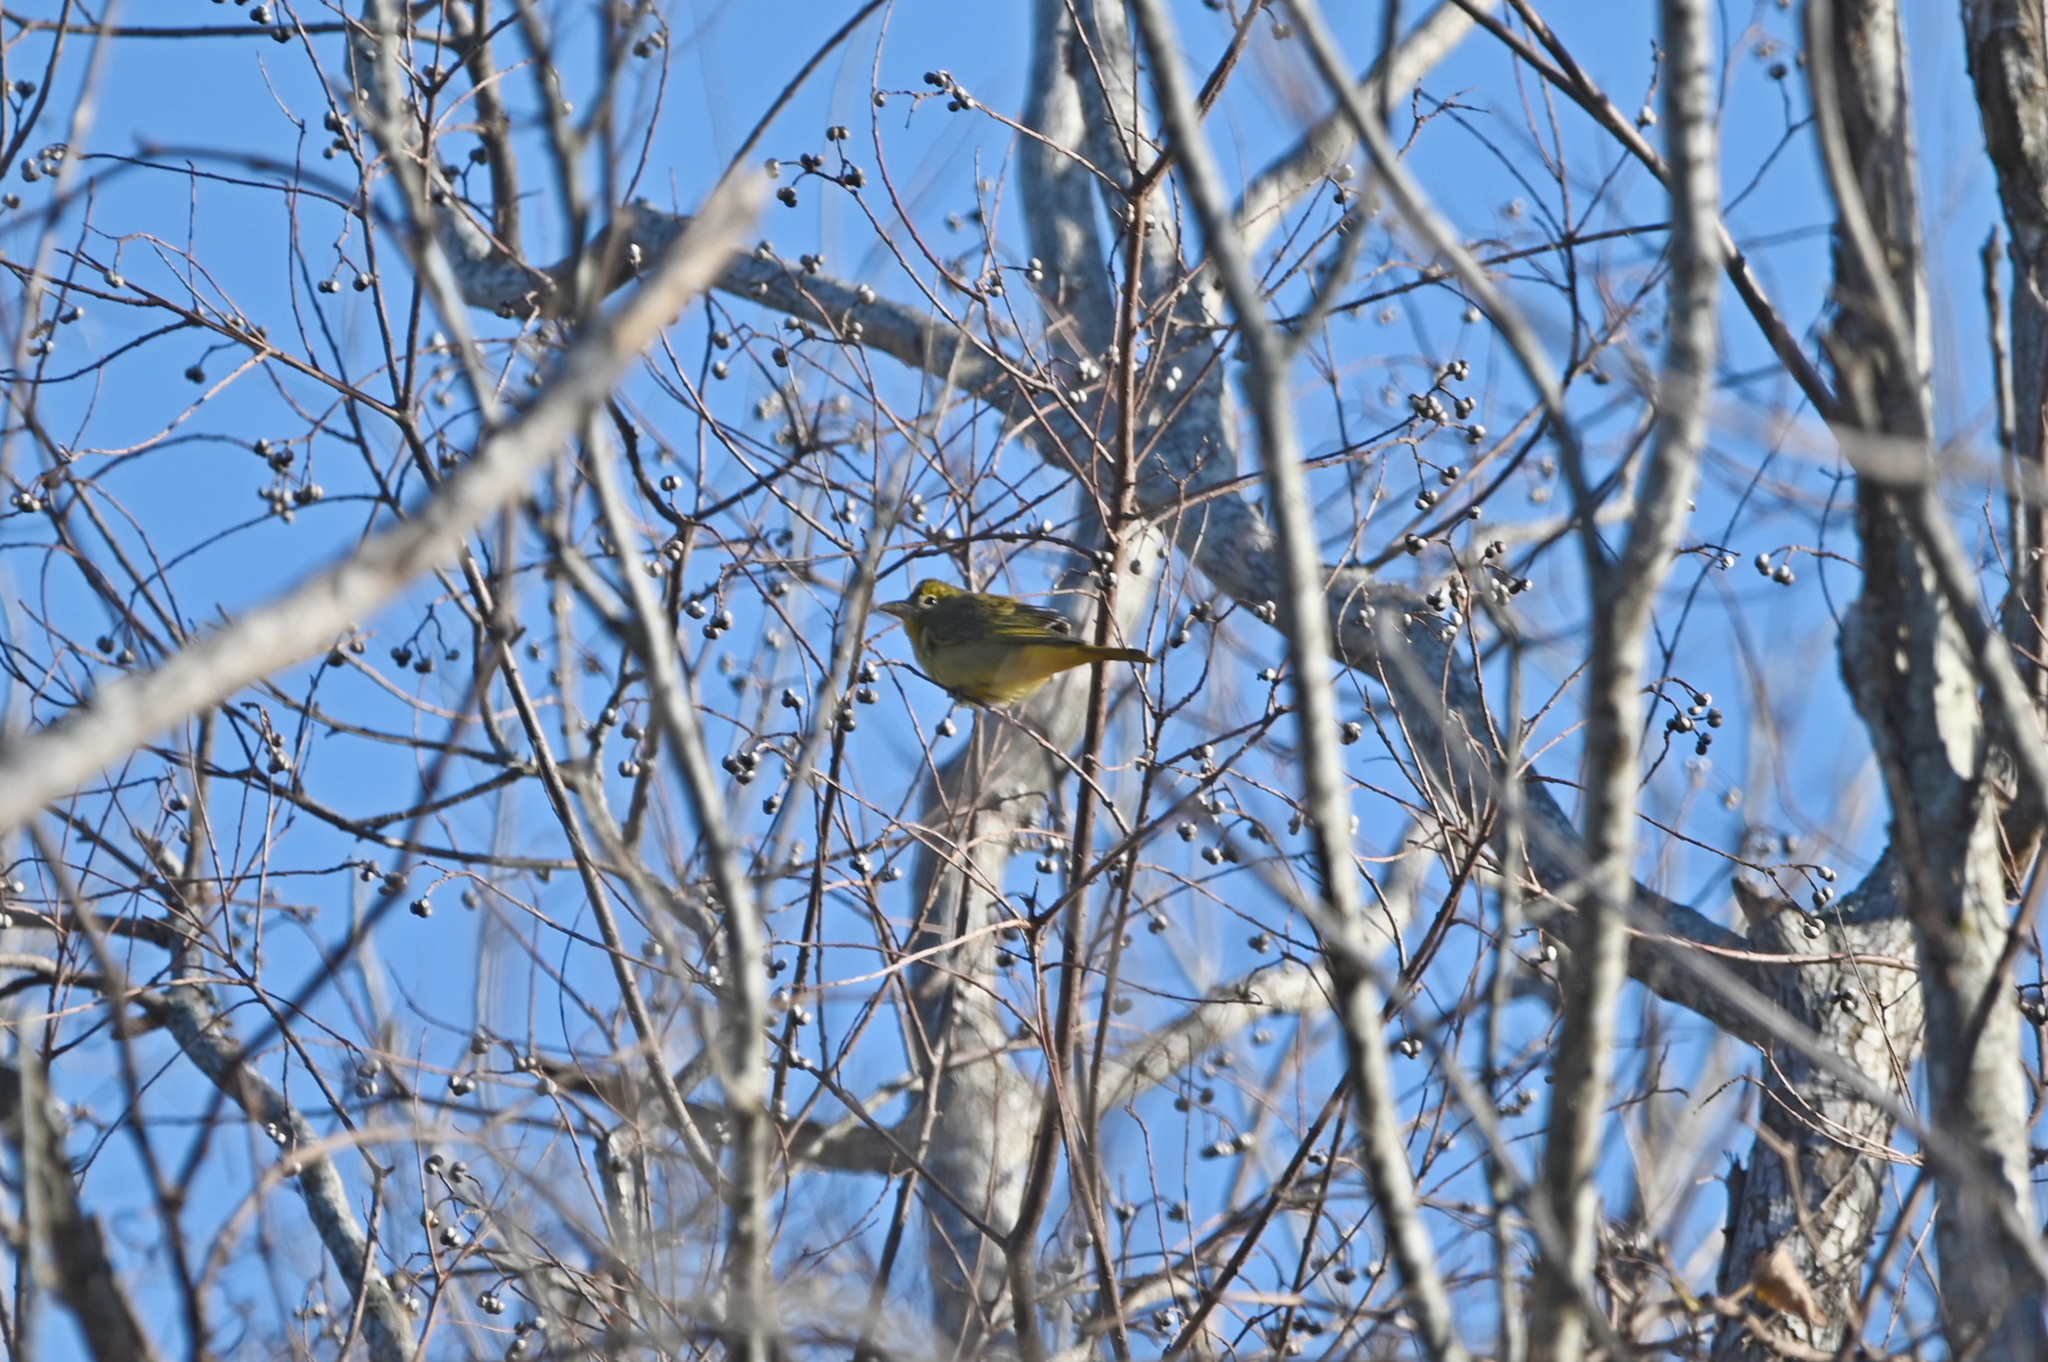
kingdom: Animalia
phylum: Chordata
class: Aves
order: Passeriformes
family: Cardinalidae
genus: Piranga
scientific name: Piranga rubra
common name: Summer tanager
